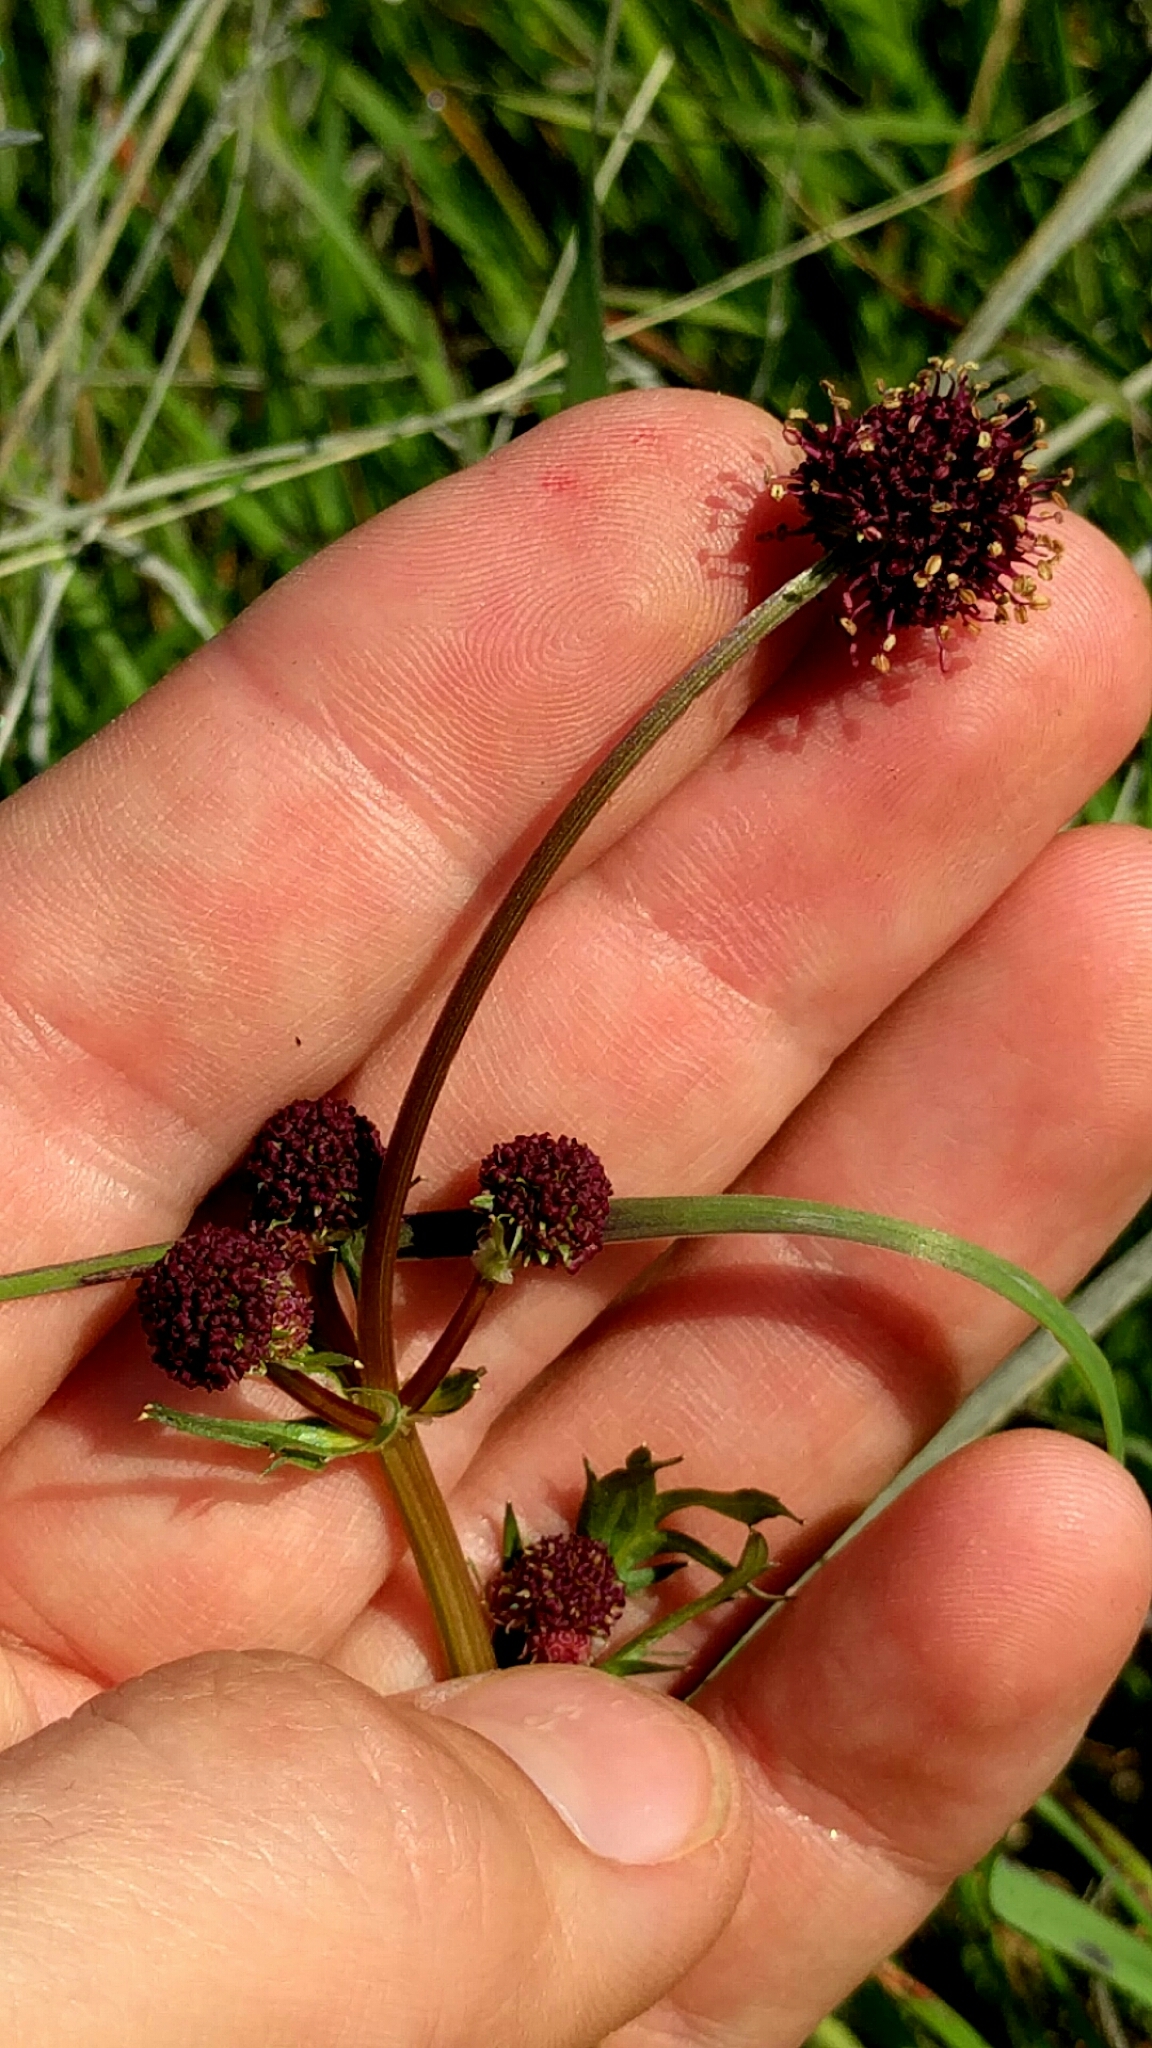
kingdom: Plantae
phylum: Tracheophyta
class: Magnoliopsida
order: Apiales
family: Apiaceae
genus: Sanicula
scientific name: Sanicula bipinnatifida
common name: Shoe-buttons
